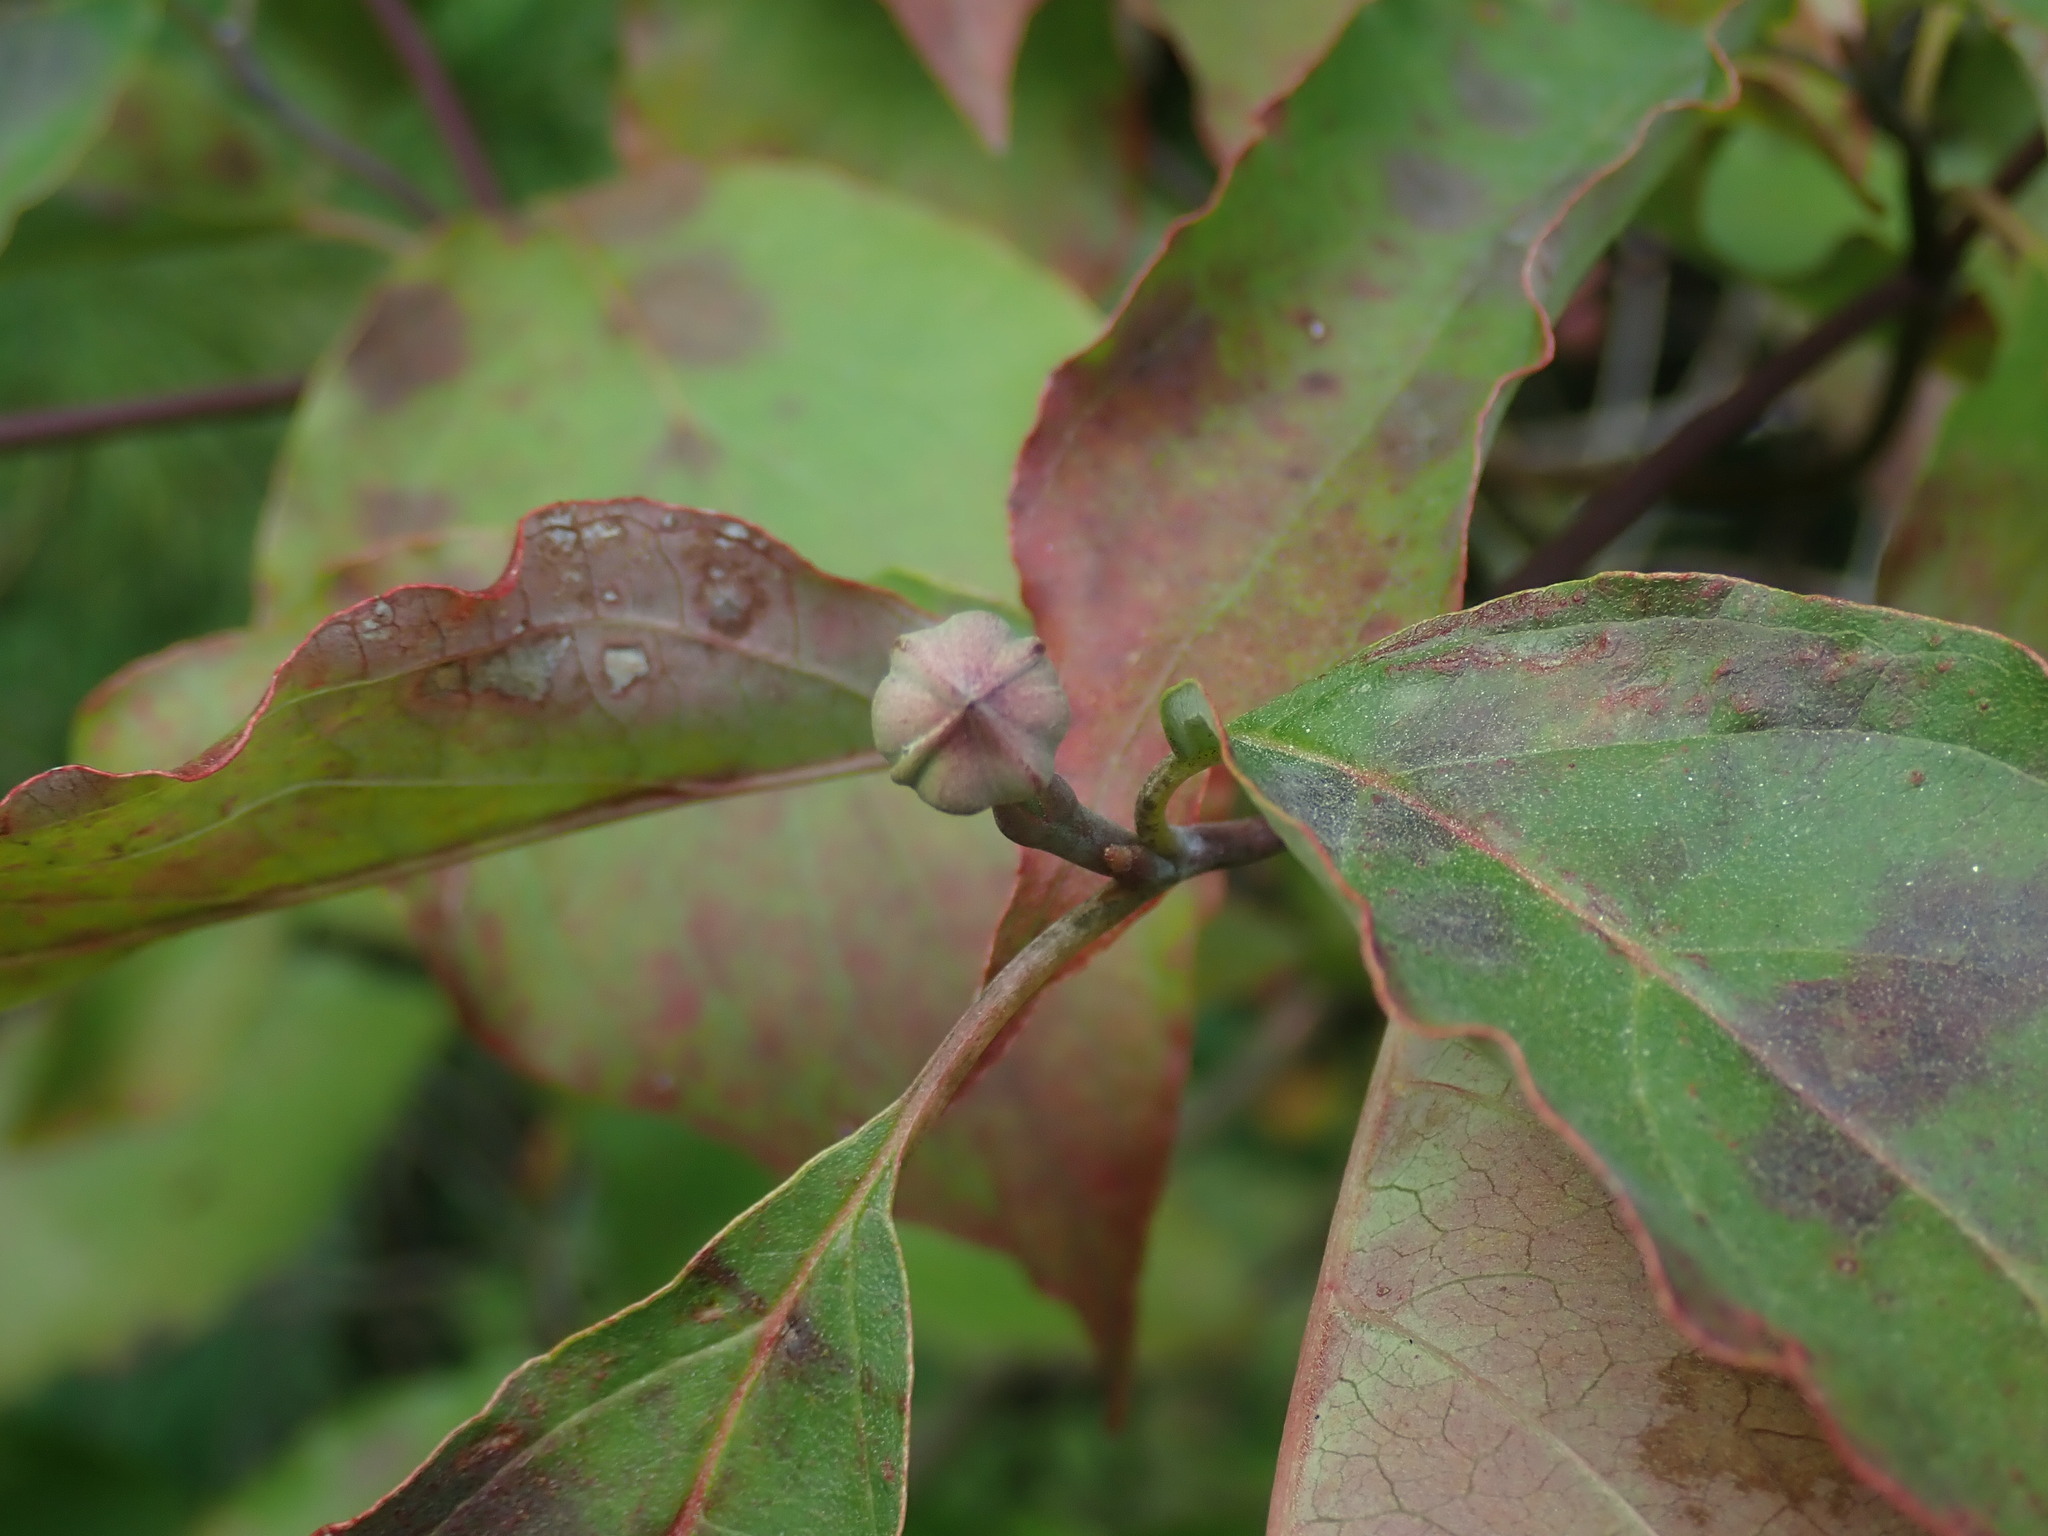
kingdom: Plantae
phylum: Tracheophyta
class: Magnoliopsida
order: Cornales
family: Cornaceae
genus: Cornus
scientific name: Cornus florida
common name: Flowering dogwood
